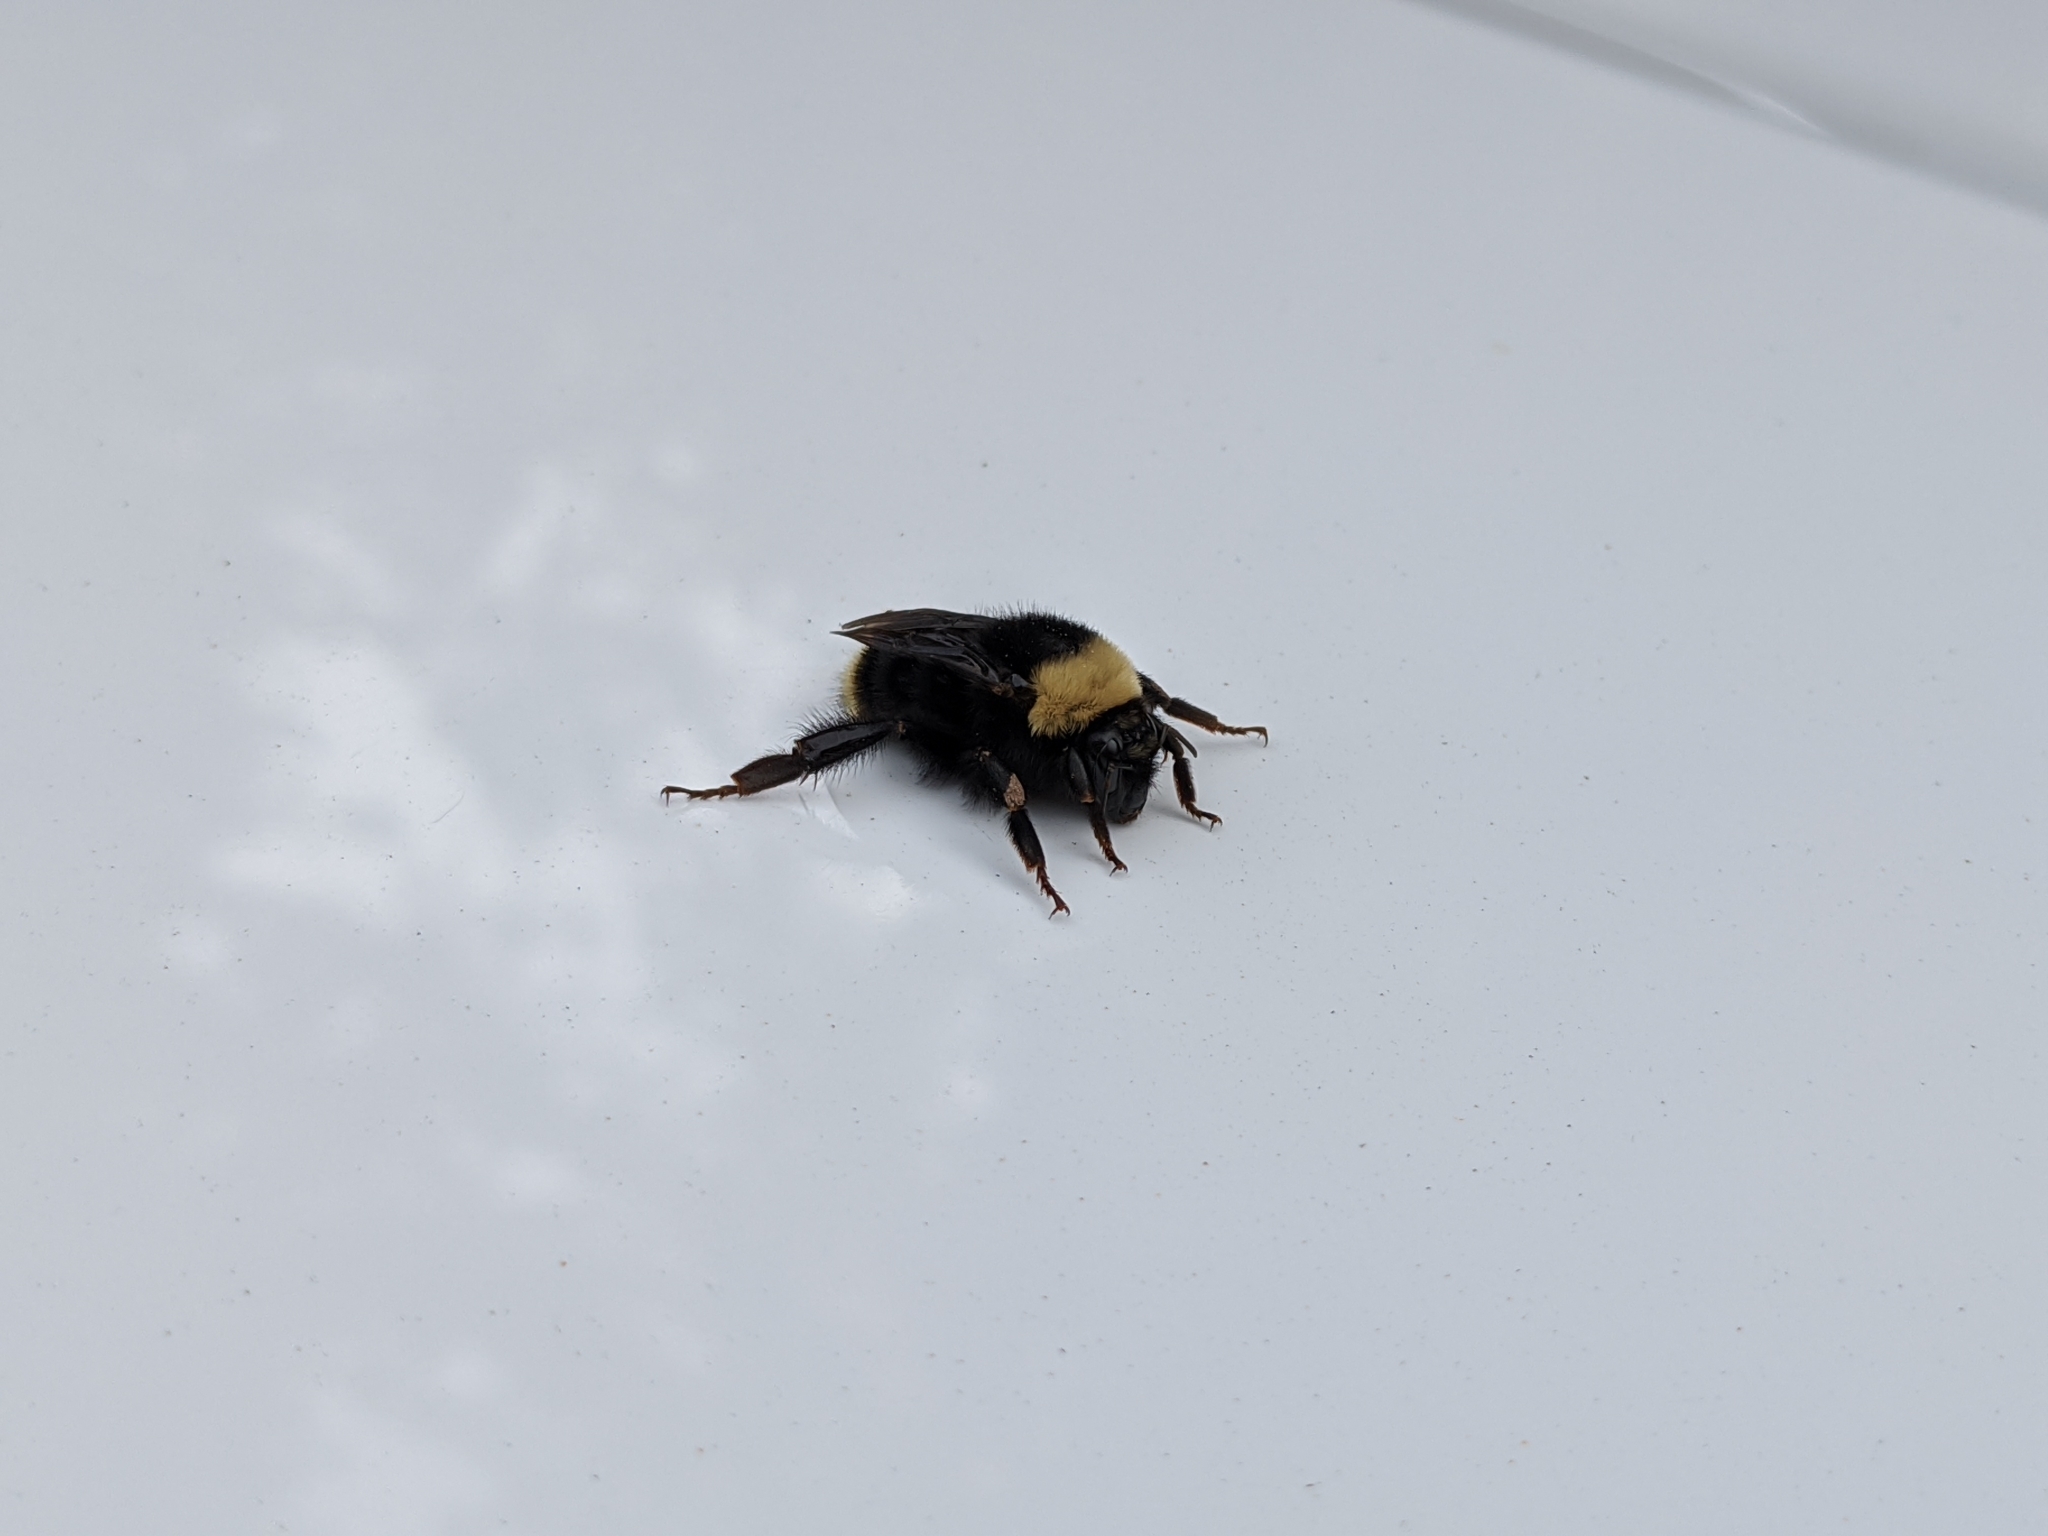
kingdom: Animalia
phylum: Arthropoda
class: Insecta
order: Hymenoptera
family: Apidae
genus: Bombus
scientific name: Bombus californicus
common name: California bumble bee
